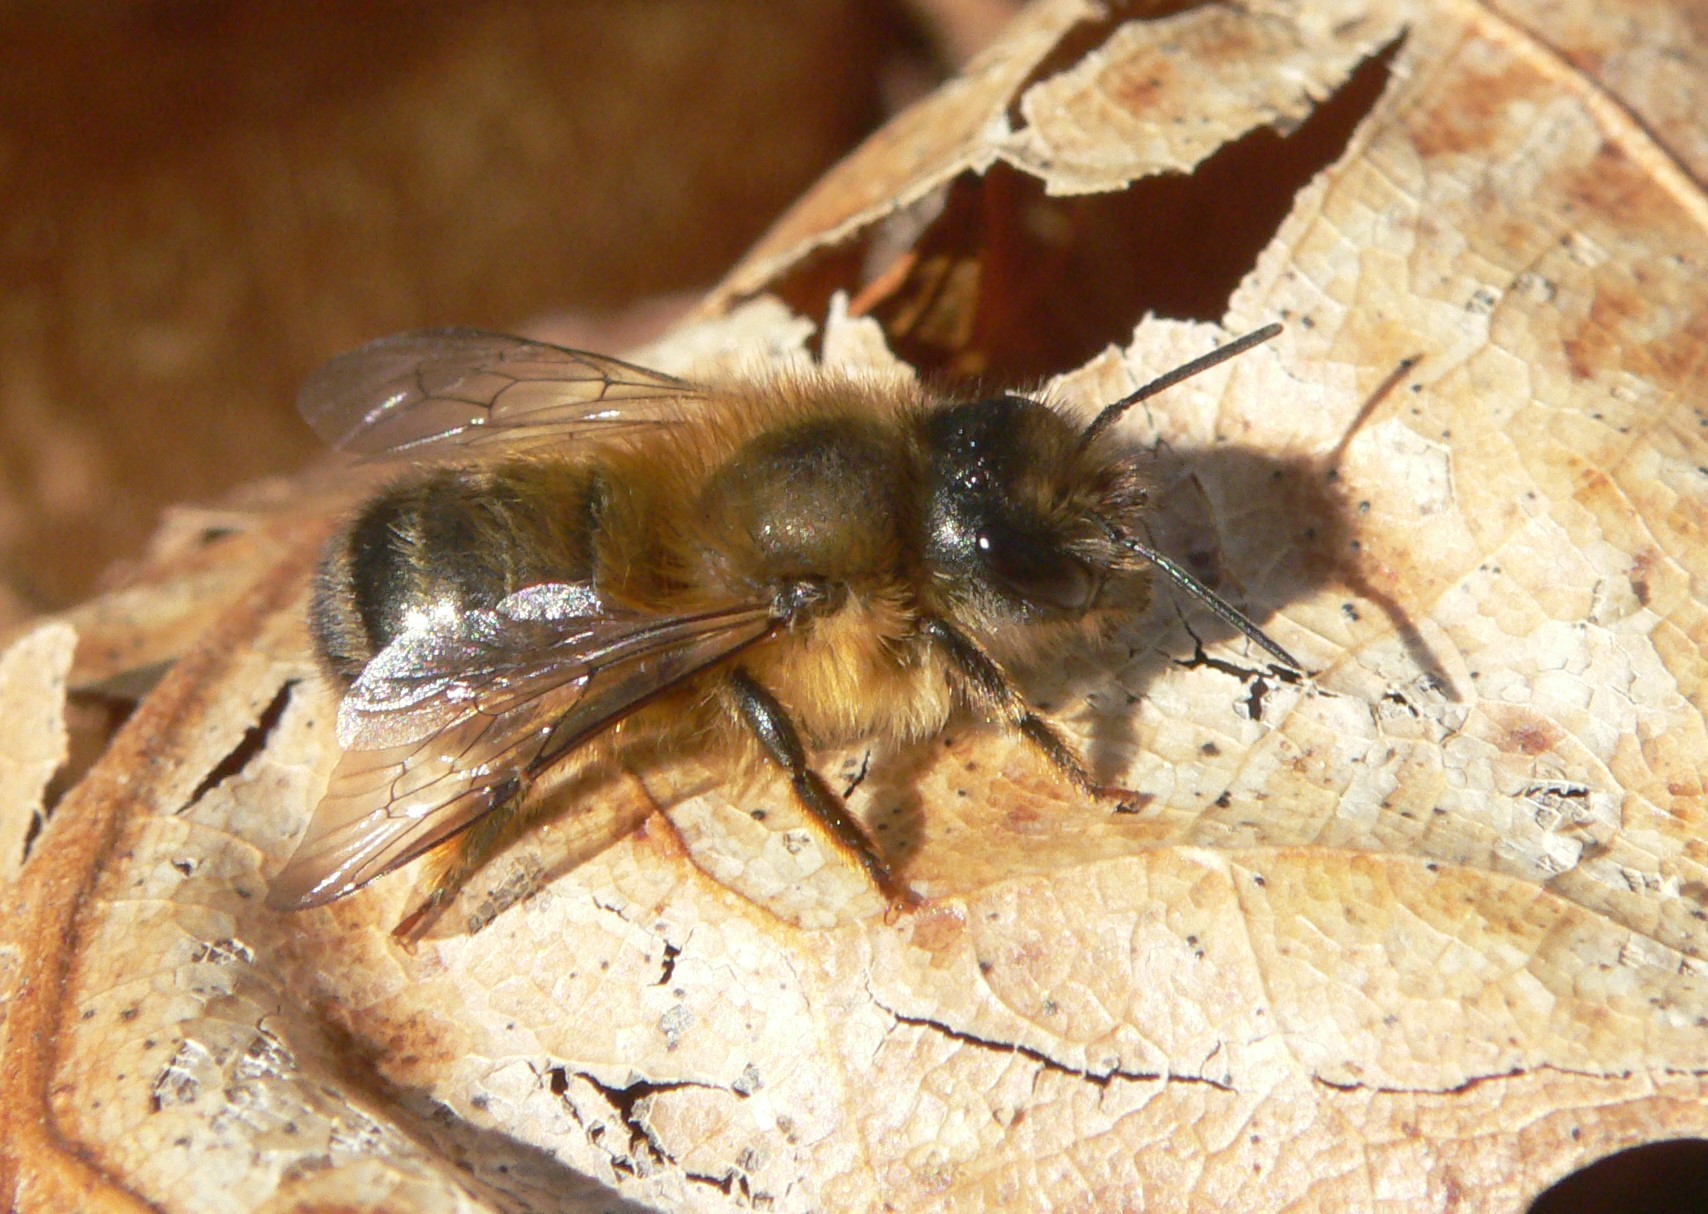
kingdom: Animalia
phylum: Arthropoda
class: Insecta
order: Hymenoptera
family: Megachilidae
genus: Osmia
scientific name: Osmia taurus
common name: Taurus mason bee
